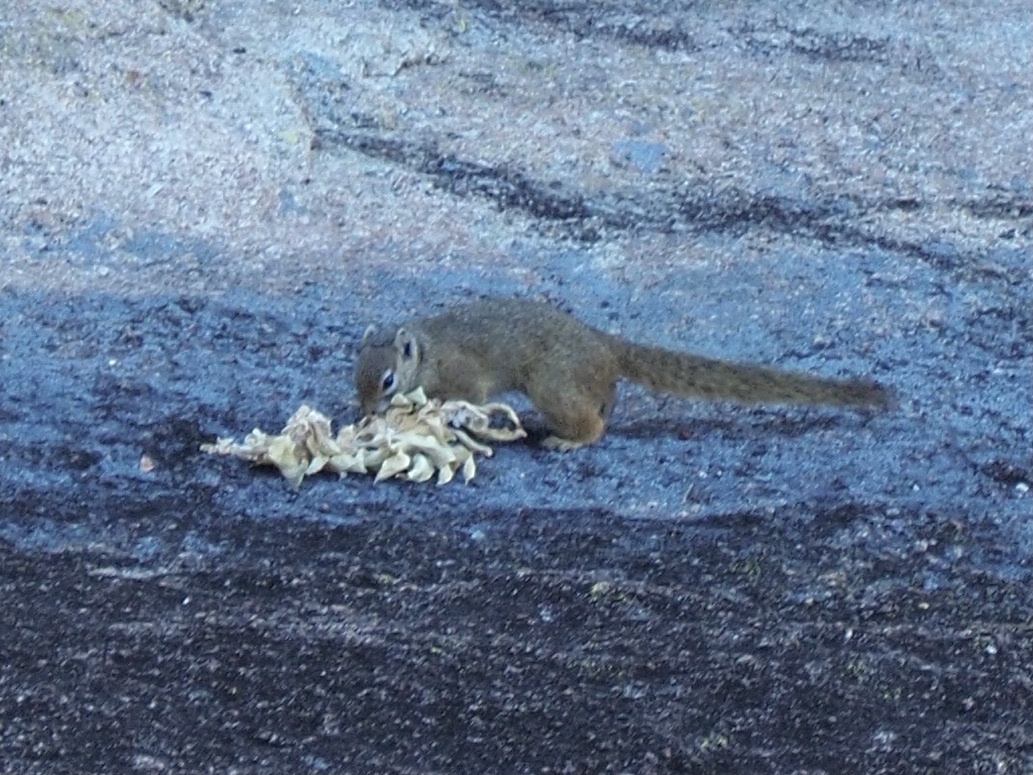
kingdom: Animalia
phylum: Chordata
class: Mammalia
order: Rodentia
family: Sciuridae
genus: Paraxerus
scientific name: Paraxerus cepapi
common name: Smith's bush squirrel
